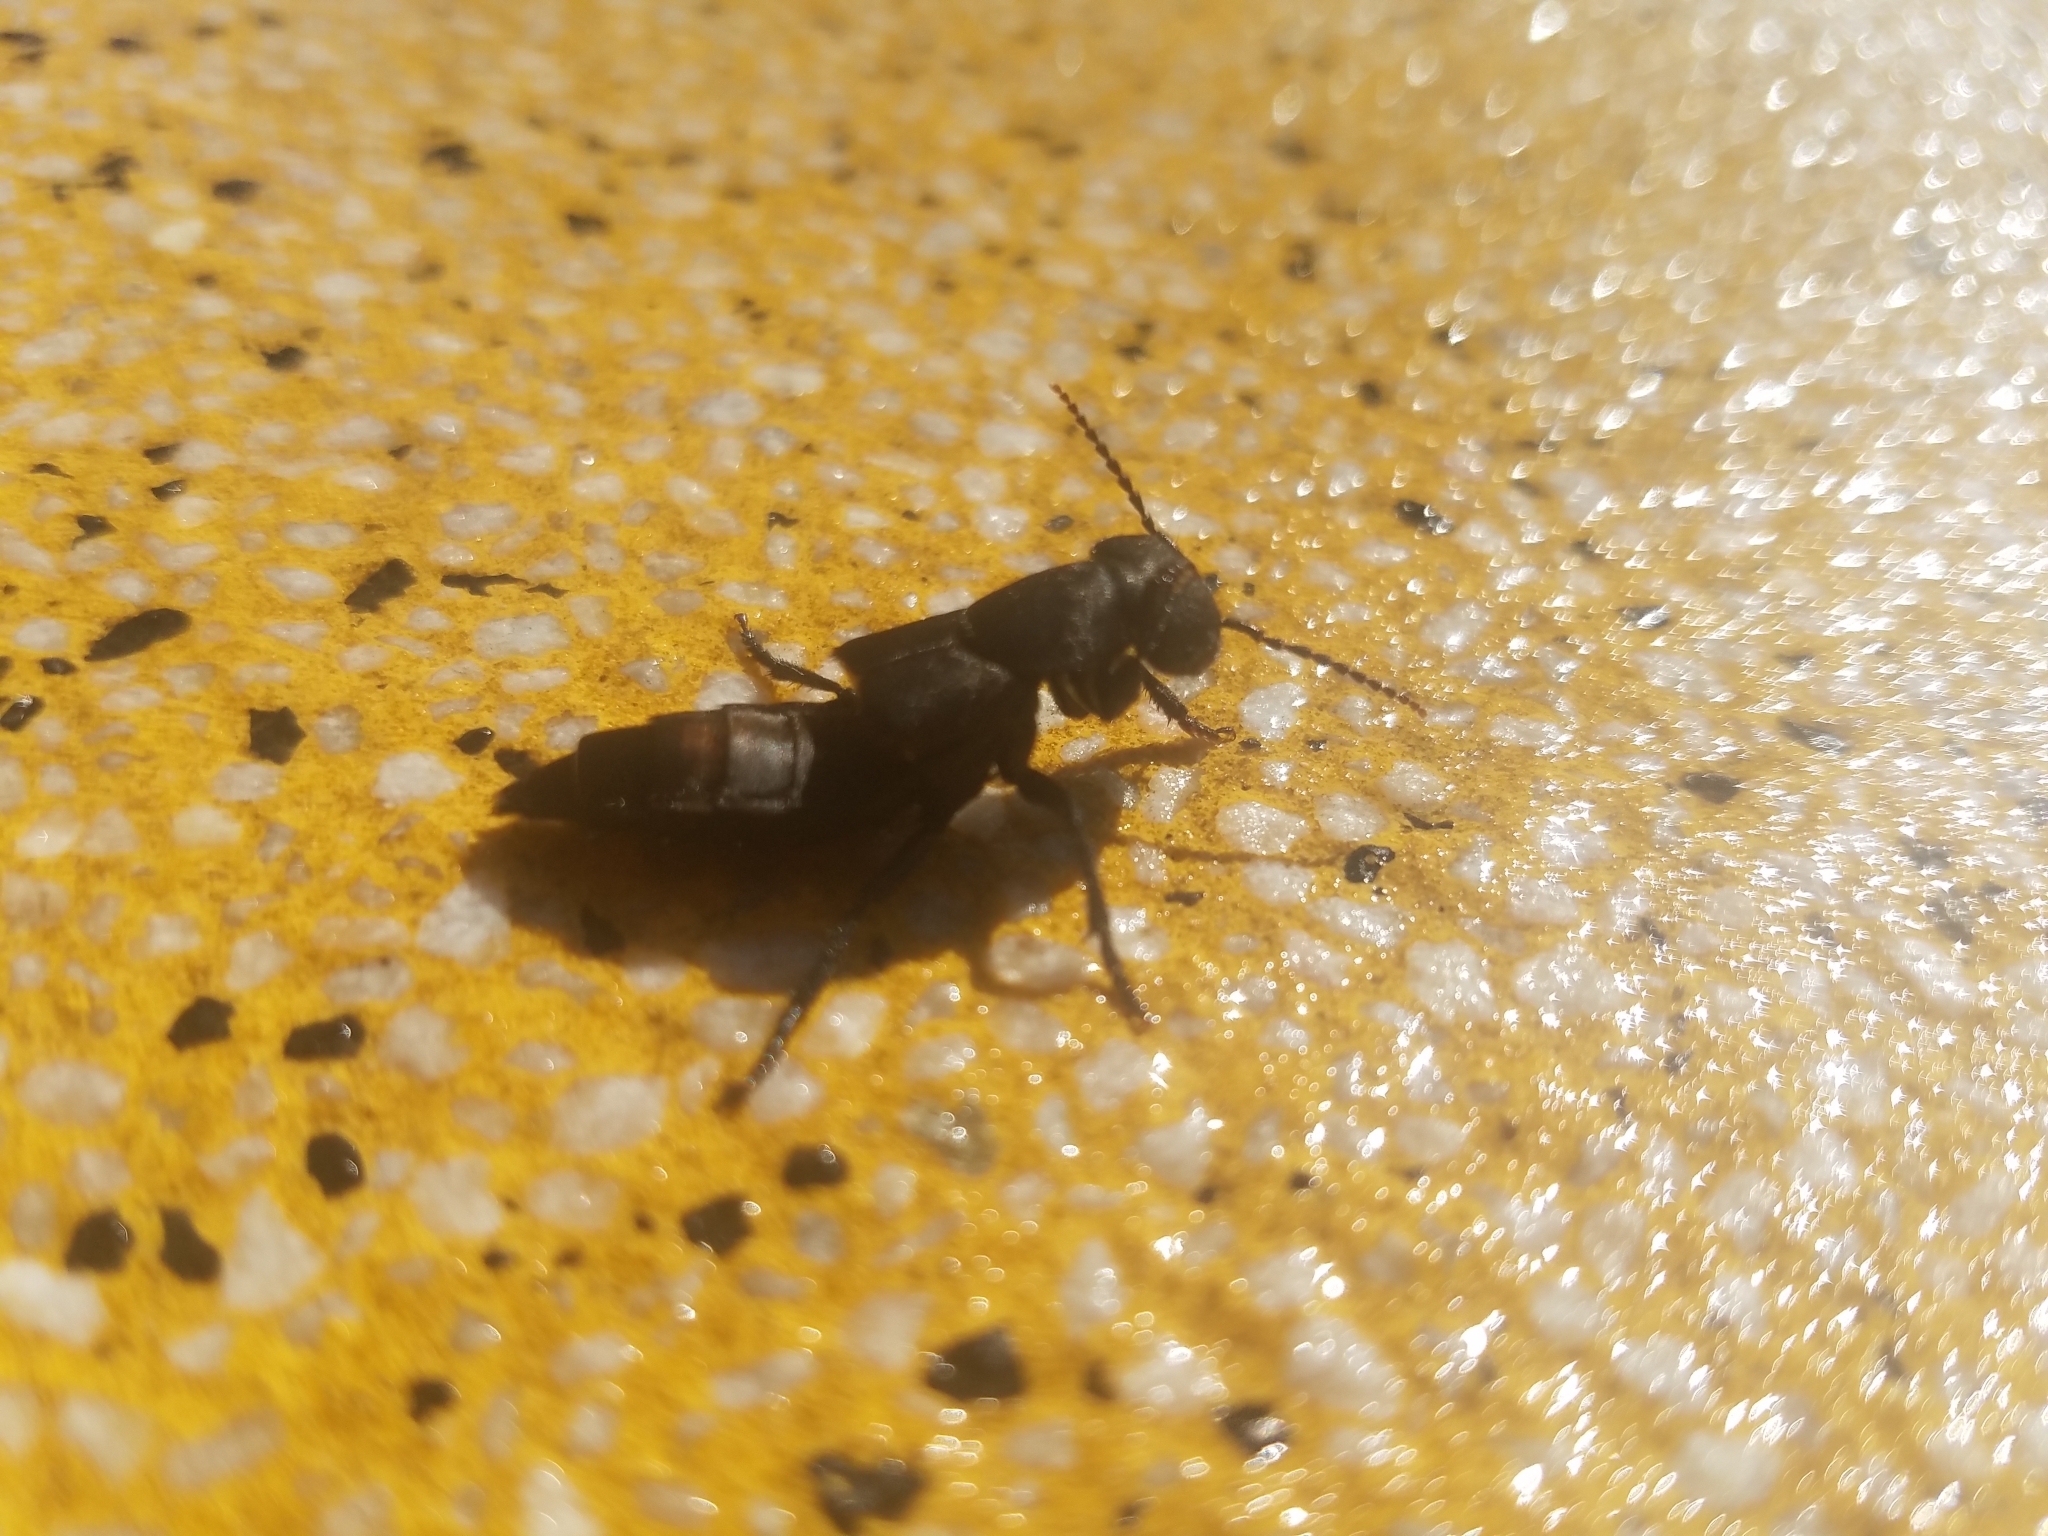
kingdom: Animalia
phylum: Arthropoda
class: Insecta
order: Coleoptera
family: Staphylinidae
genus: Ocypus
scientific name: Ocypus olens
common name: Devil's coach-horse
